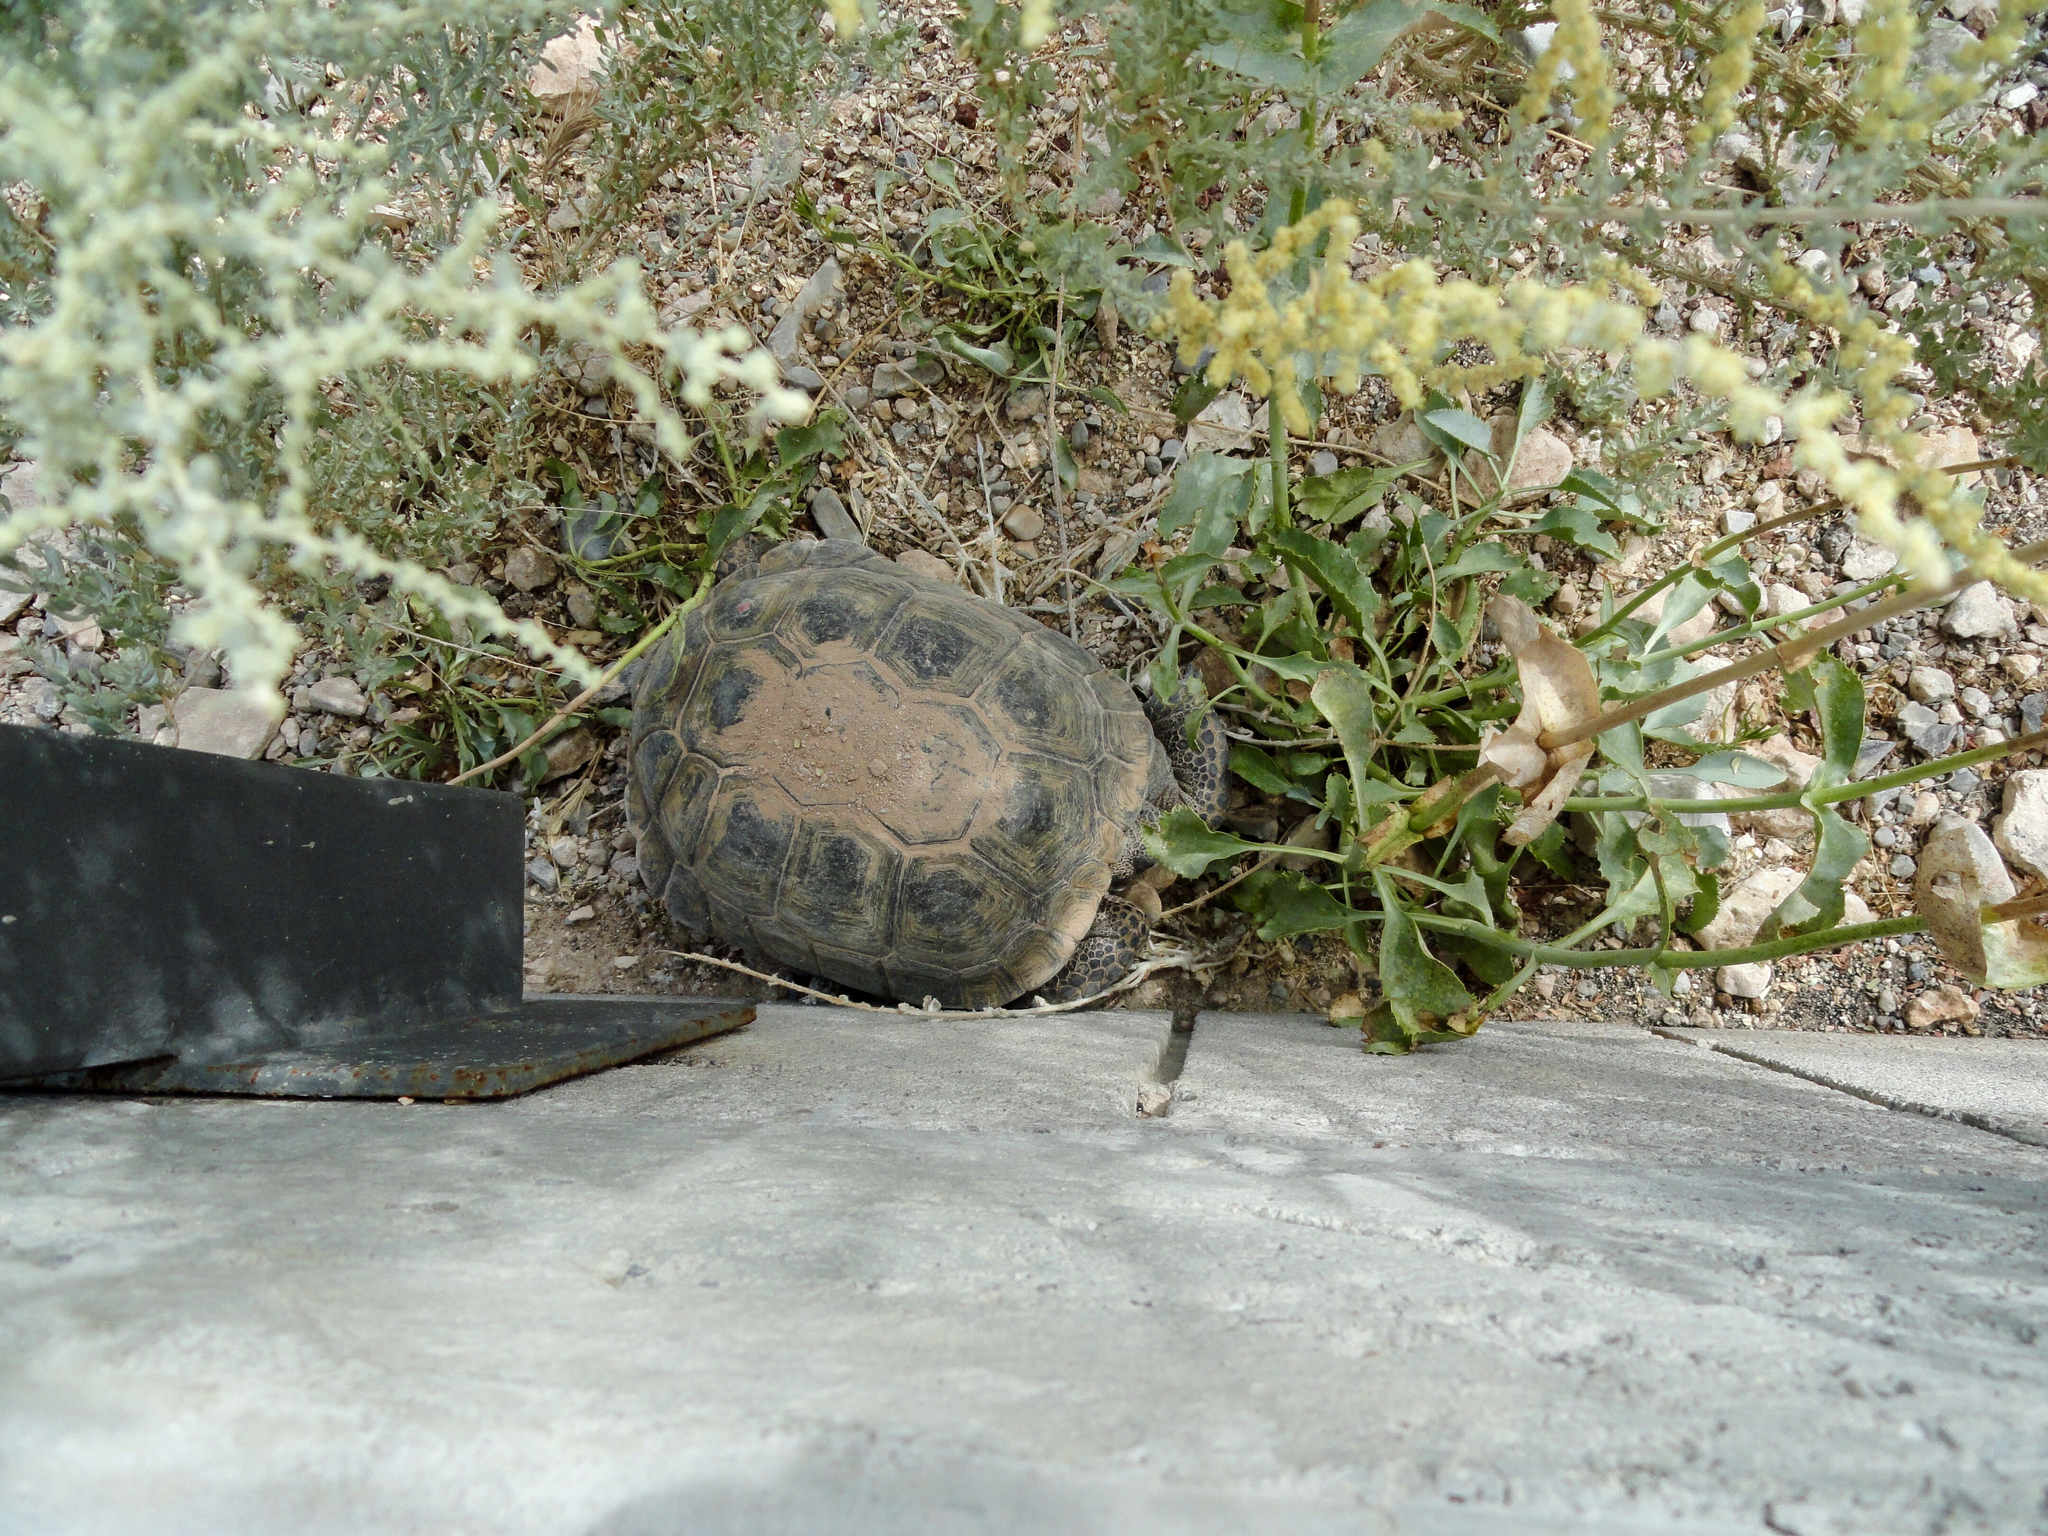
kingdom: Animalia
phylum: Chordata
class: Testudines
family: Testudinidae
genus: Gopherus
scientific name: Gopherus agassizii
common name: Mojave desert tortoise
